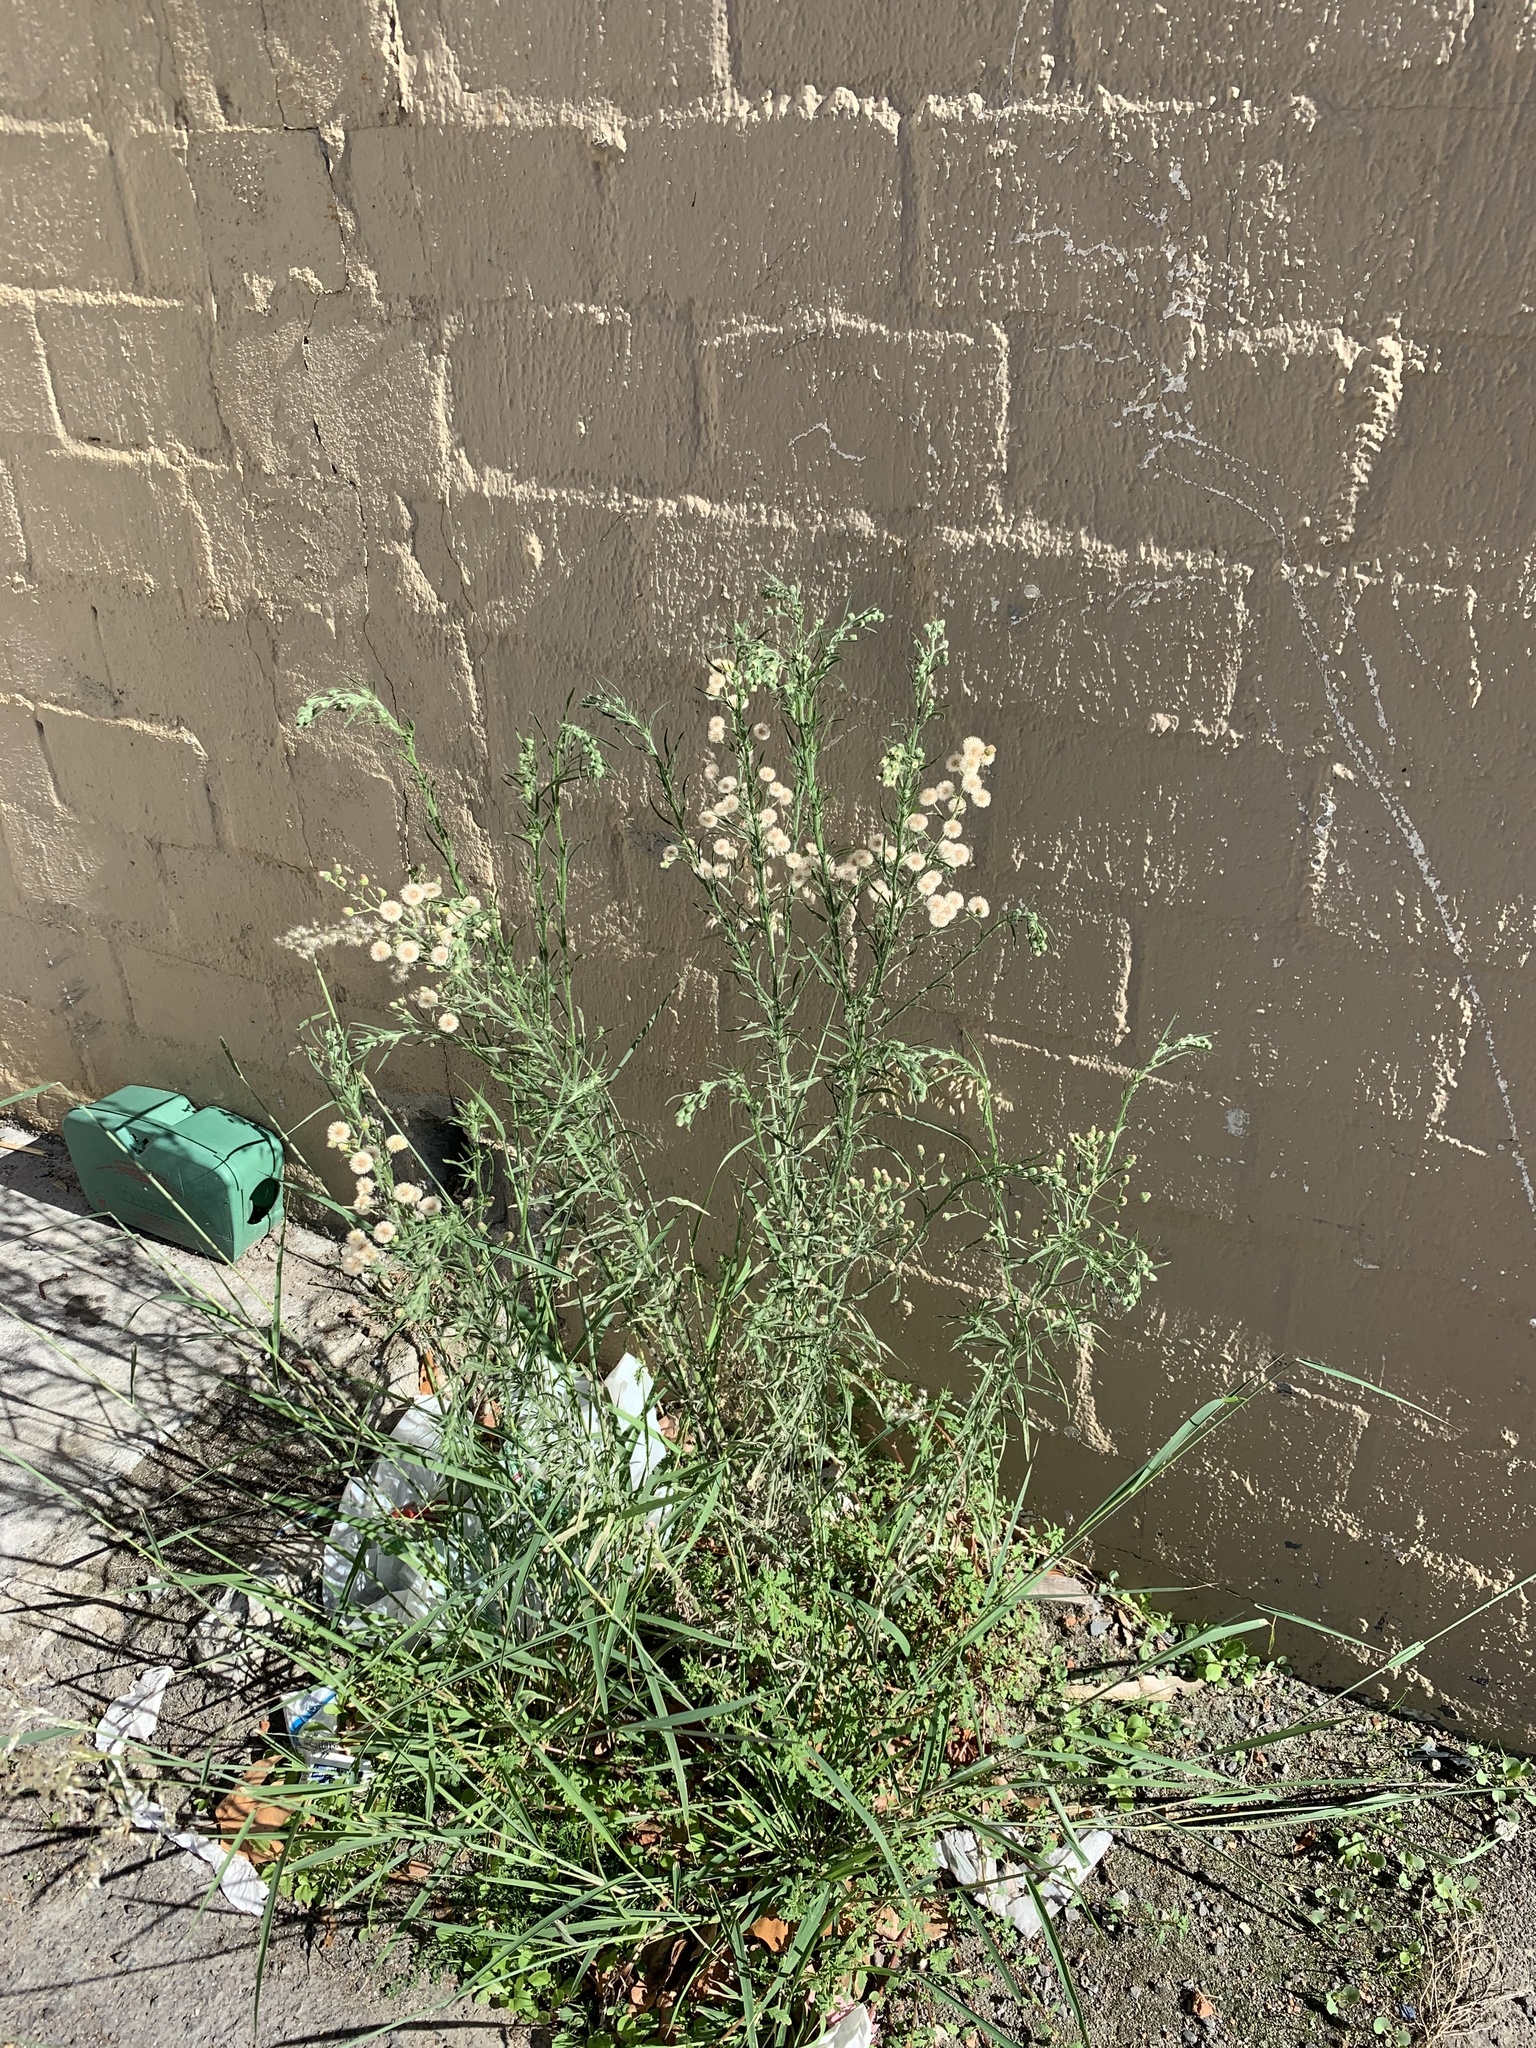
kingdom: Plantae
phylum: Tracheophyta
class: Magnoliopsida
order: Asterales
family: Asteraceae
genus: Erigeron
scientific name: Erigeron bonariensis
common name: Argentine fleabane
